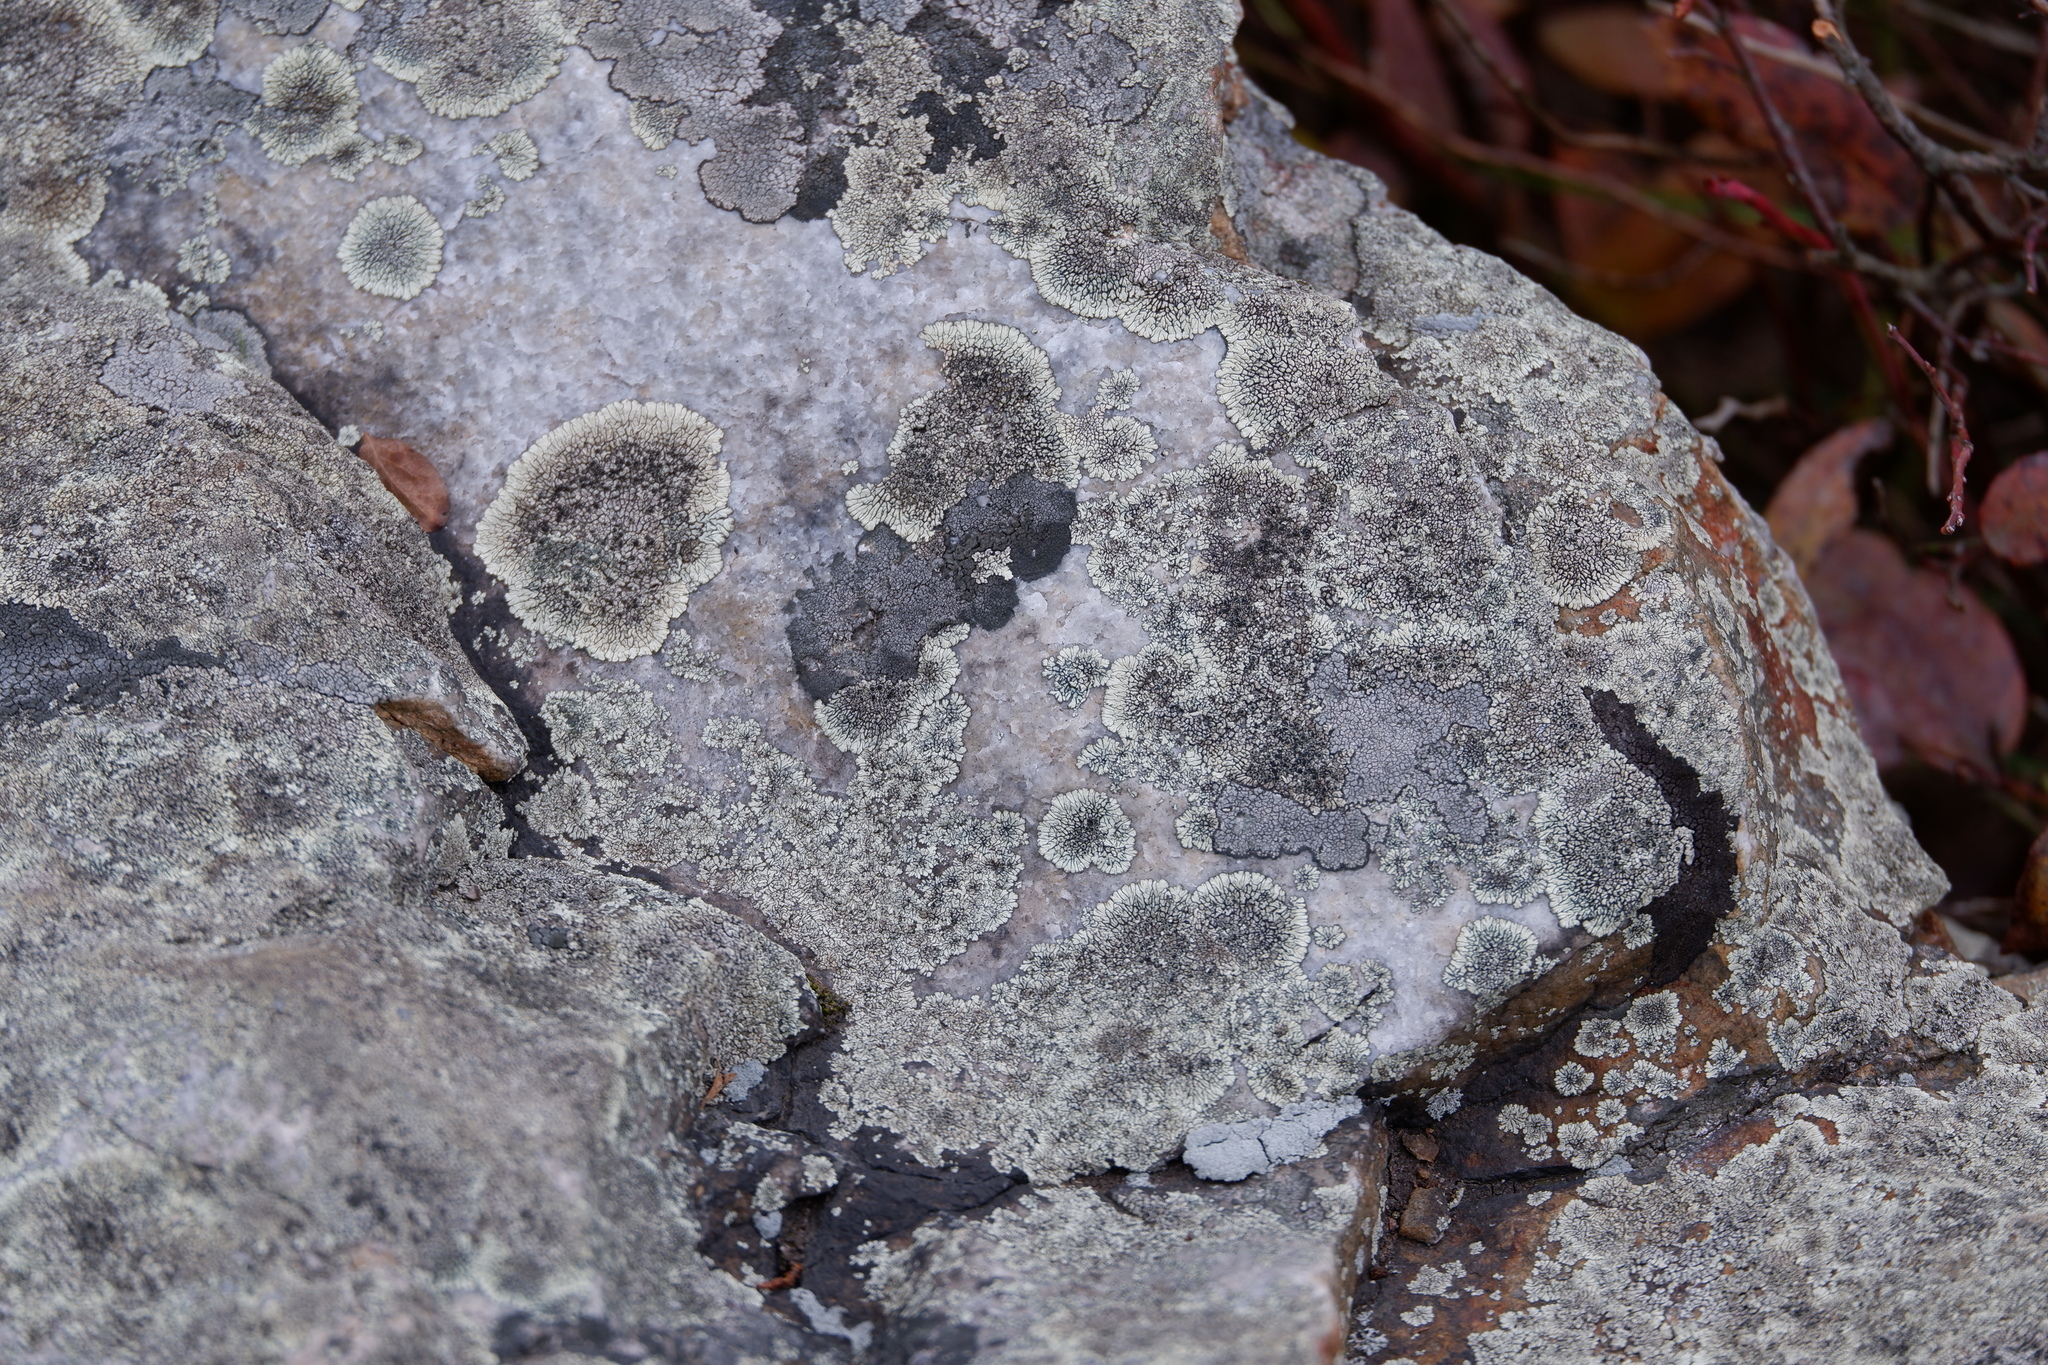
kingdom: Fungi
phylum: Ascomycota
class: Lecanoromycetes
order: Caliciales
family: Caliciaceae
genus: Dimelaena
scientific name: Dimelaena oreina
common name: Golden moonglow lichen
